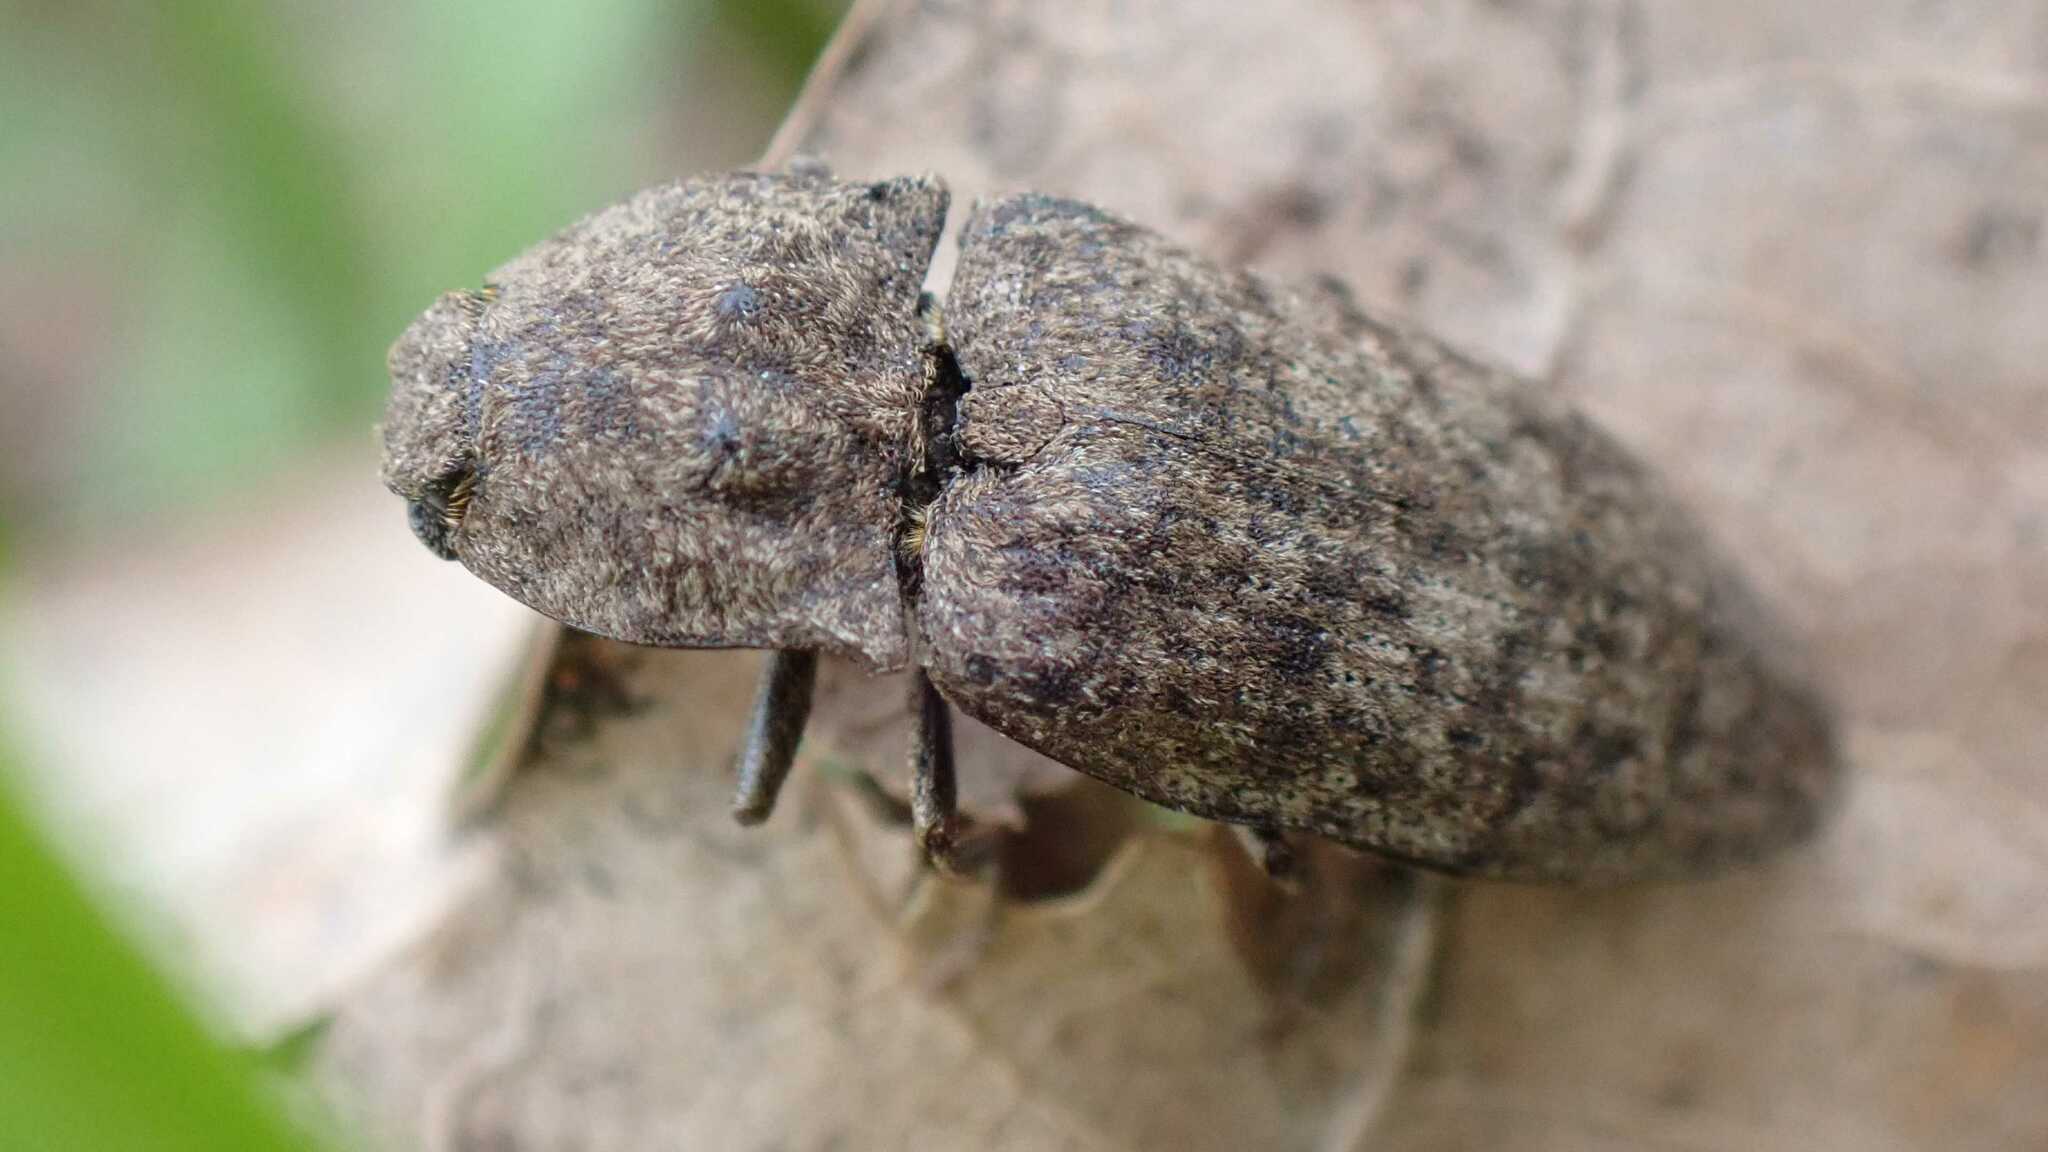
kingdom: Animalia
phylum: Arthropoda
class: Insecta
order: Coleoptera
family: Elateridae
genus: Agrypnus
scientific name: Agrypnus murinus
